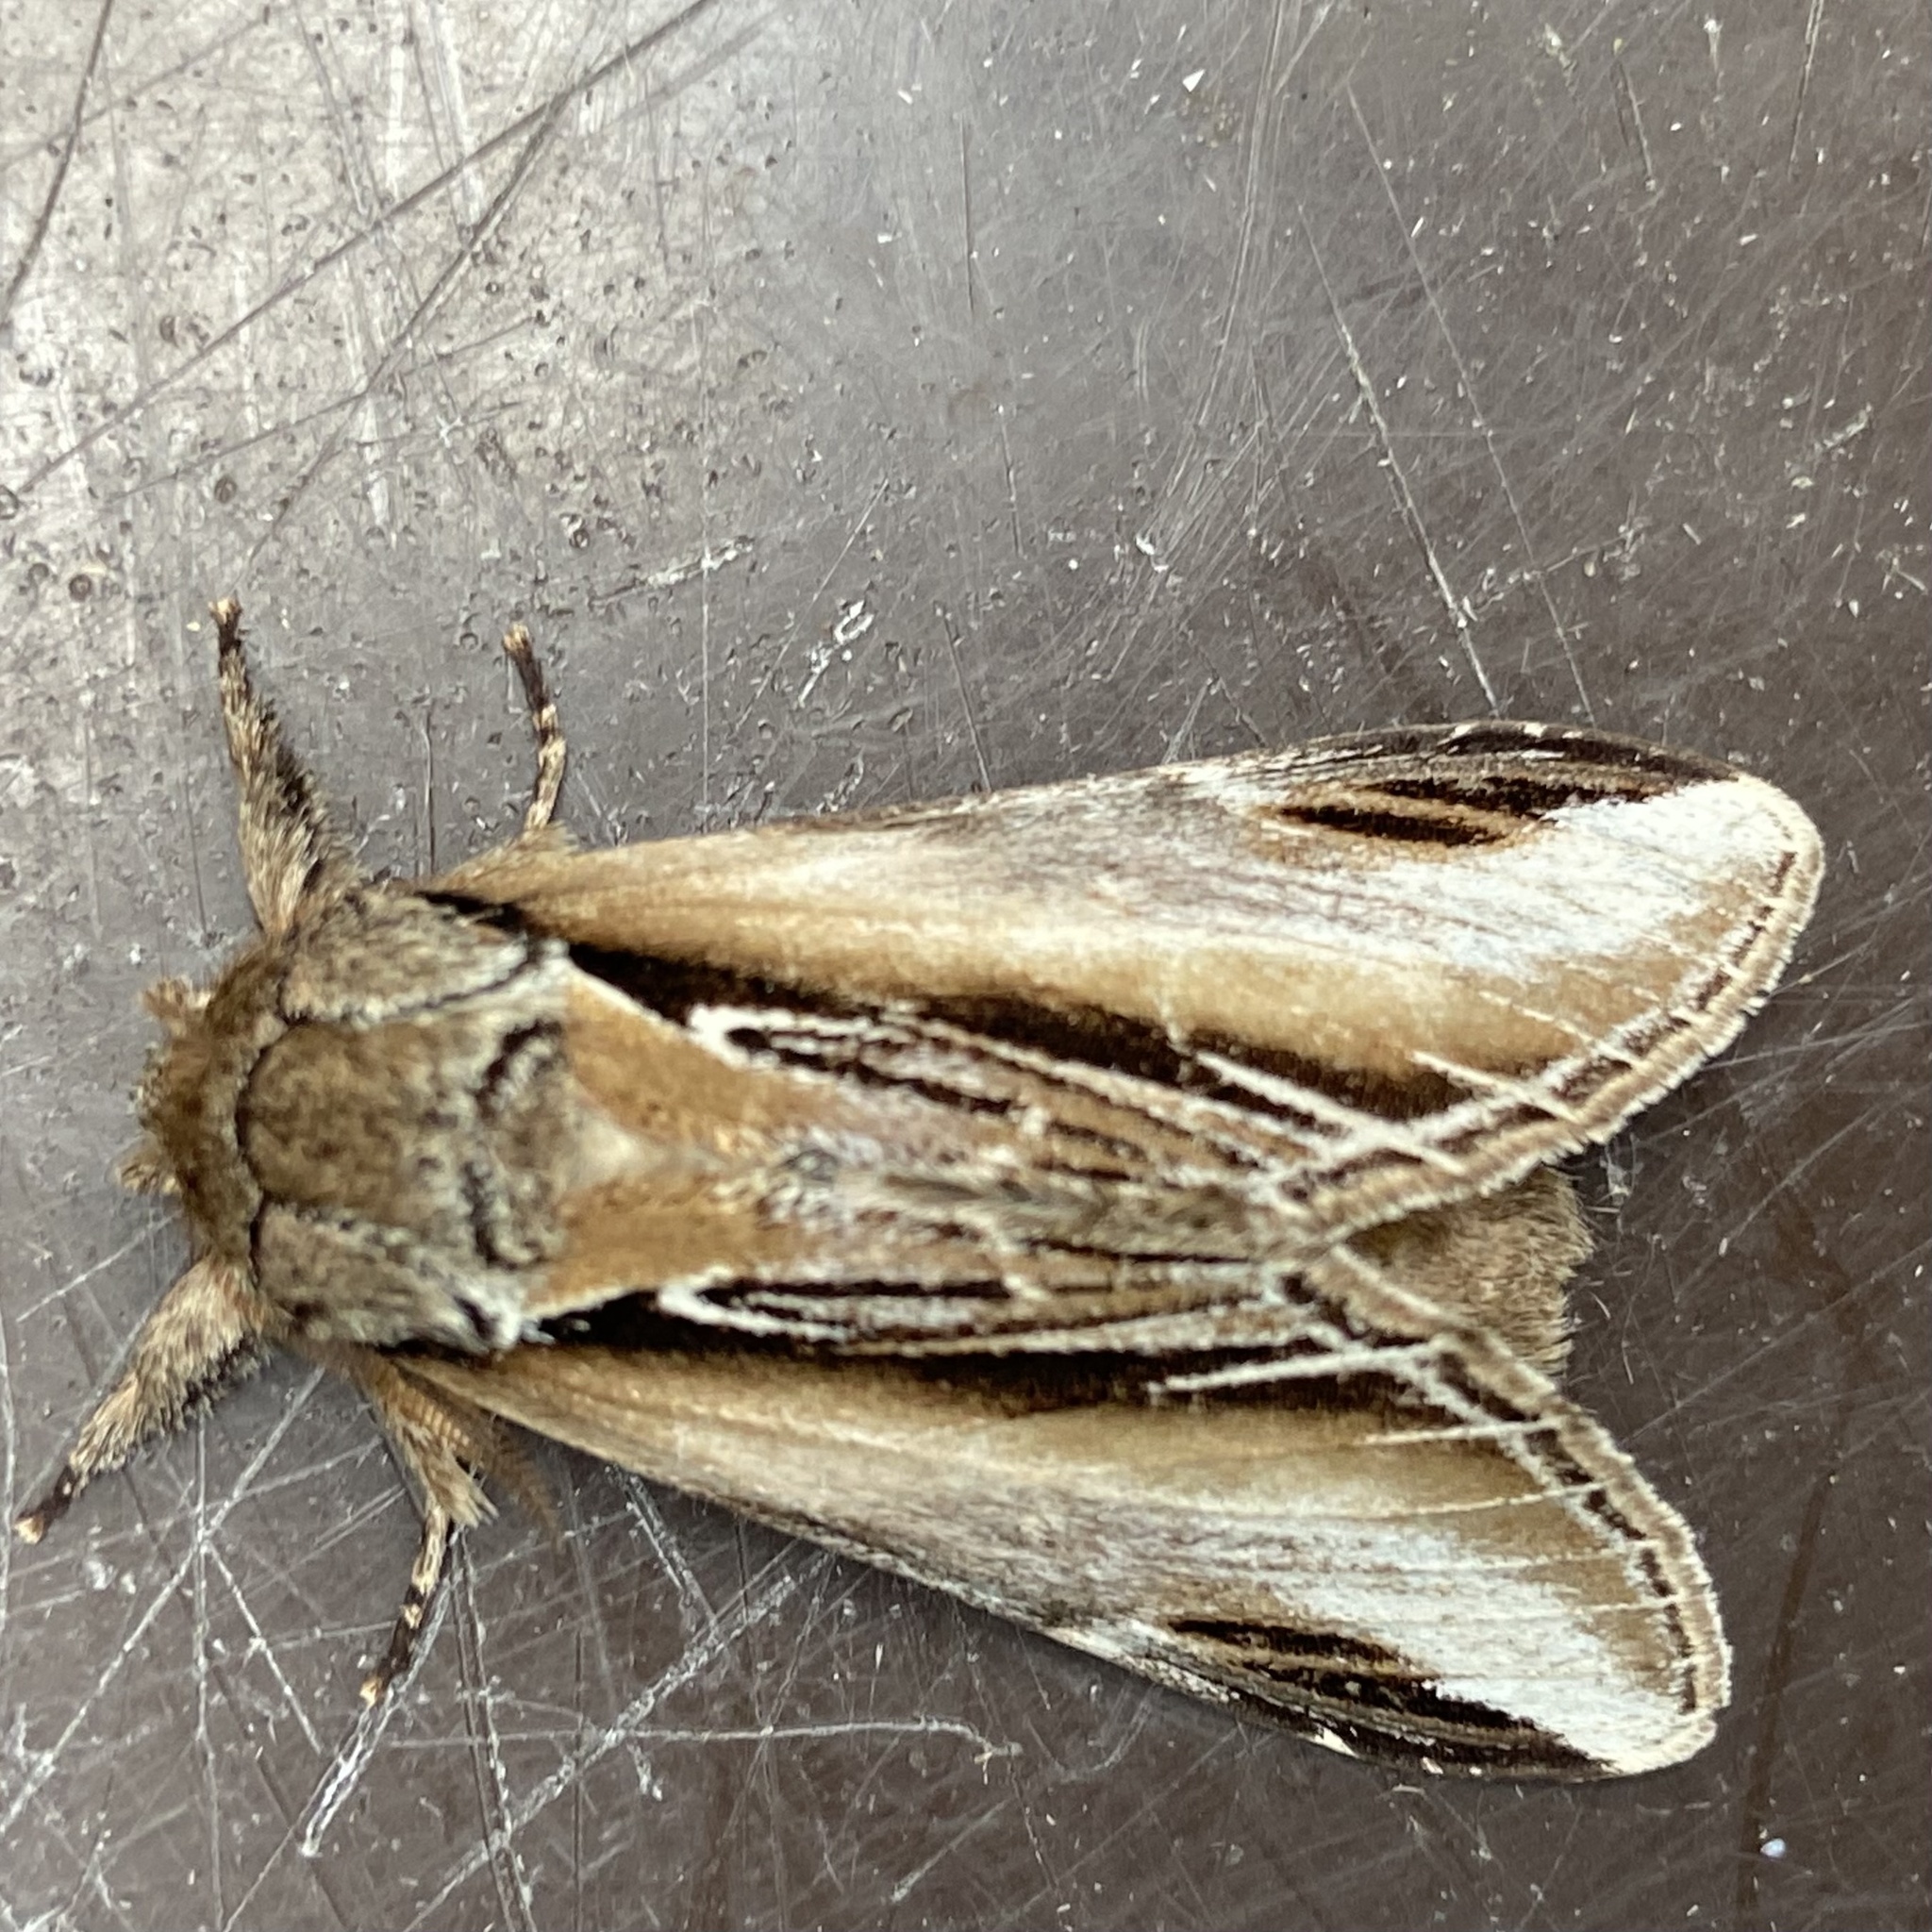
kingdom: Animalia
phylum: Arthropoda
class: Insecta
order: Lepidoptera
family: Notodontidae
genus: Pheosia
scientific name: Pheosia tremula
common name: Swallow prominent
